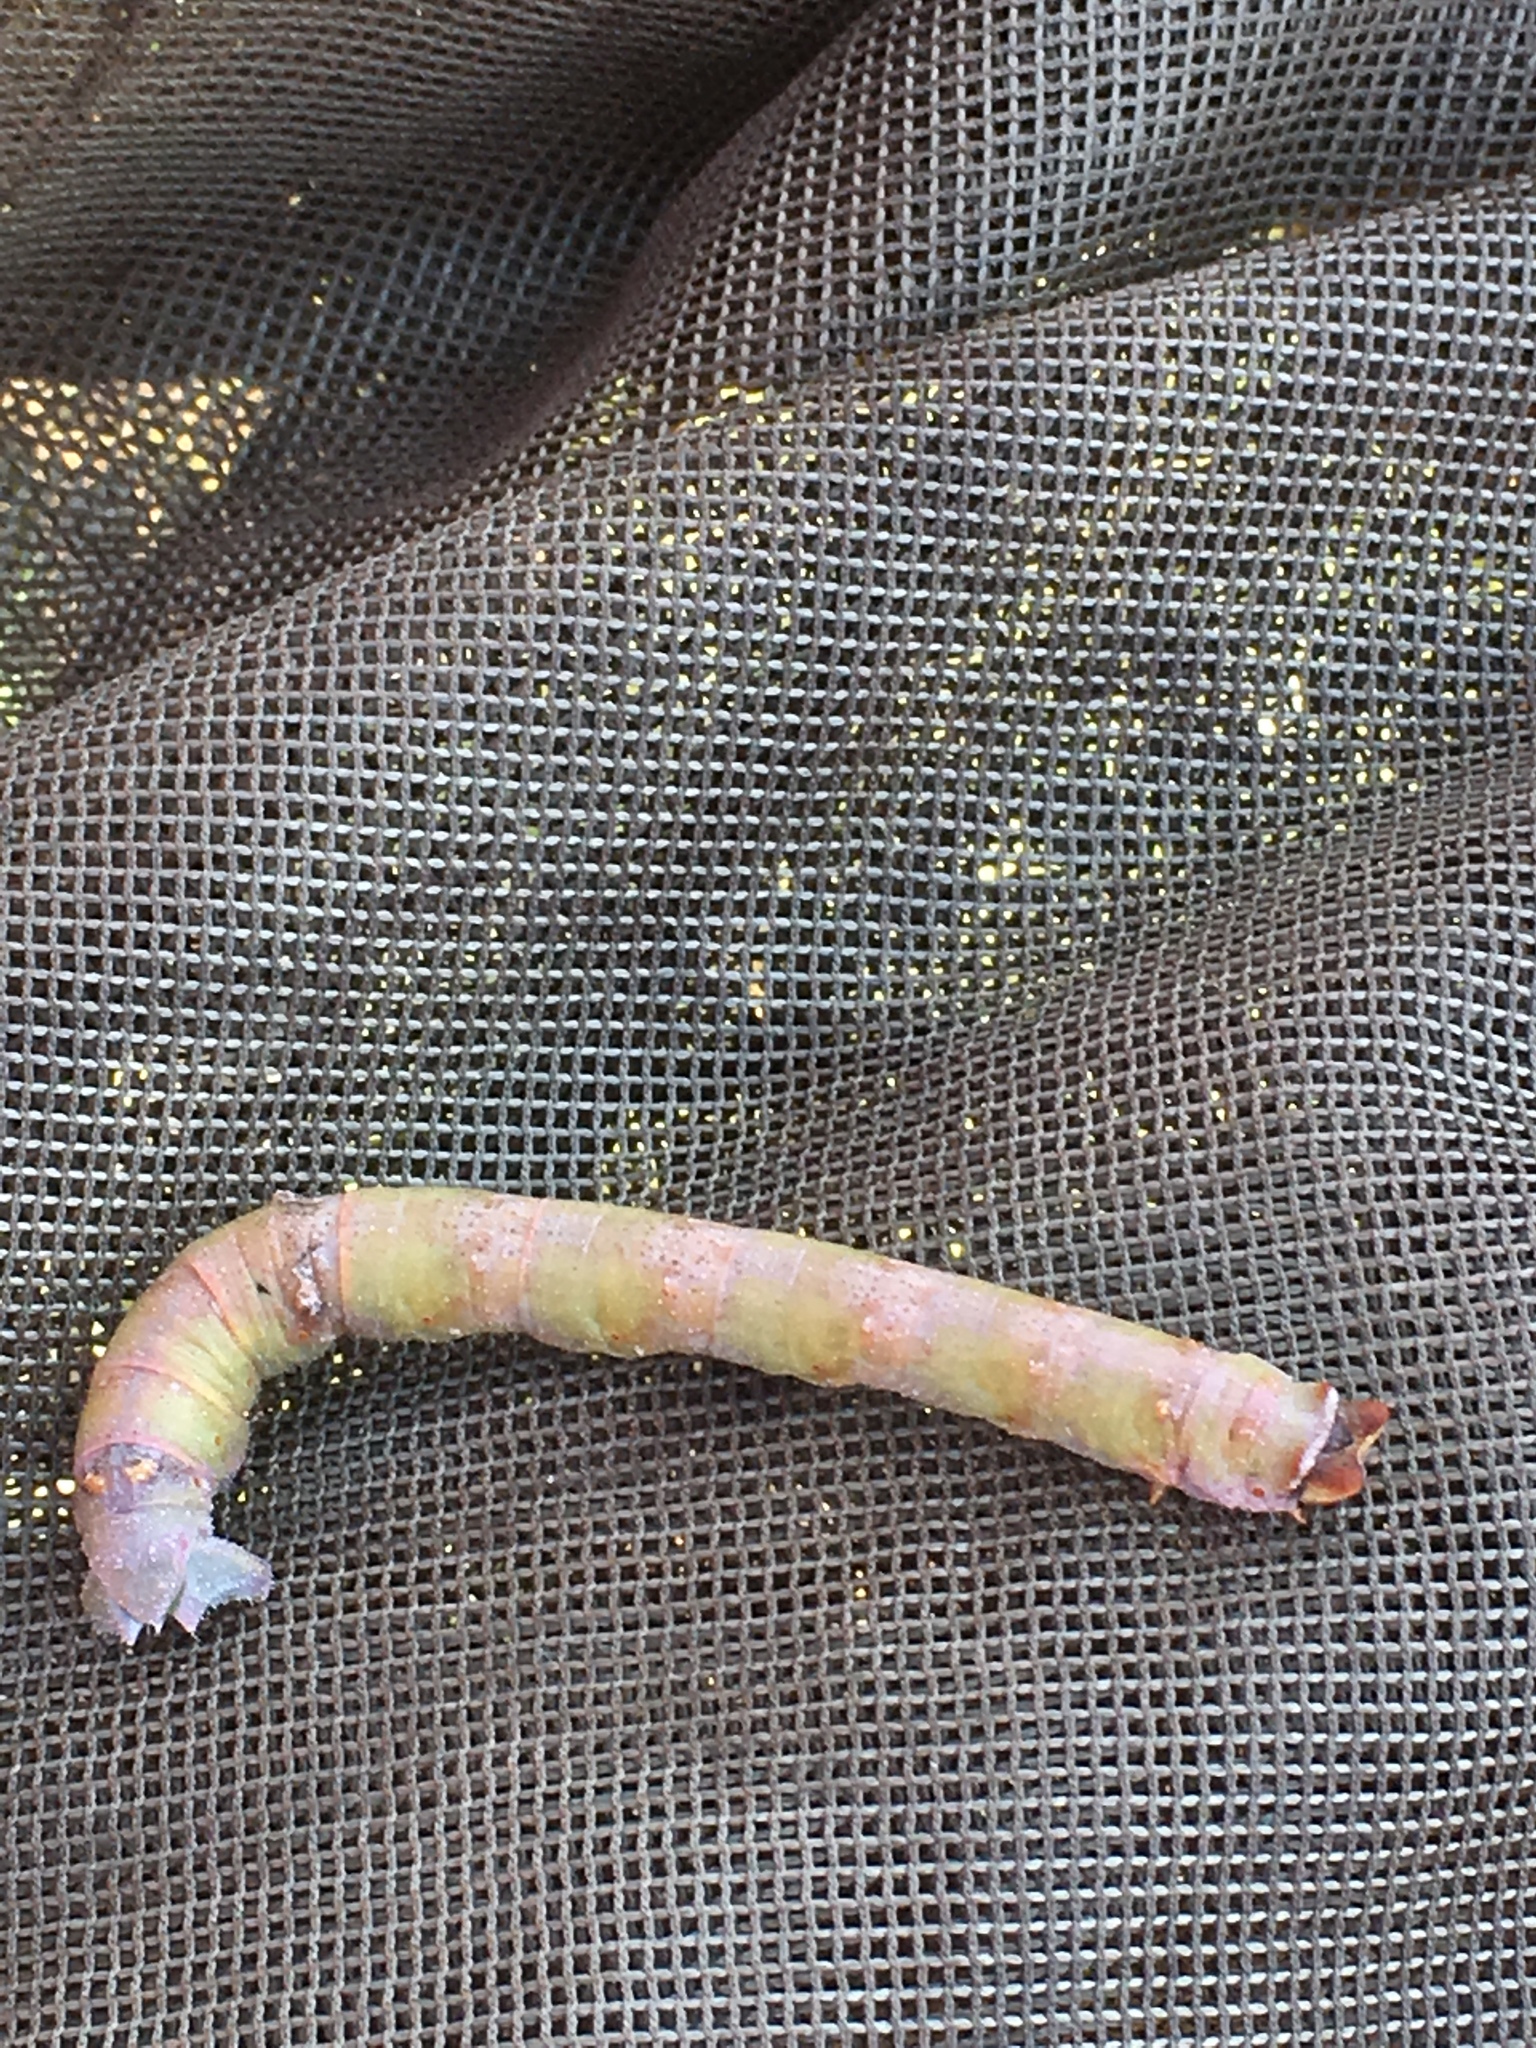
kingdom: Animalia
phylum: Arthropoda
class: Insecta
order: Lepidoptera
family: Geometridae
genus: Biston
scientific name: Biston betularia
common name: Peppered moth
